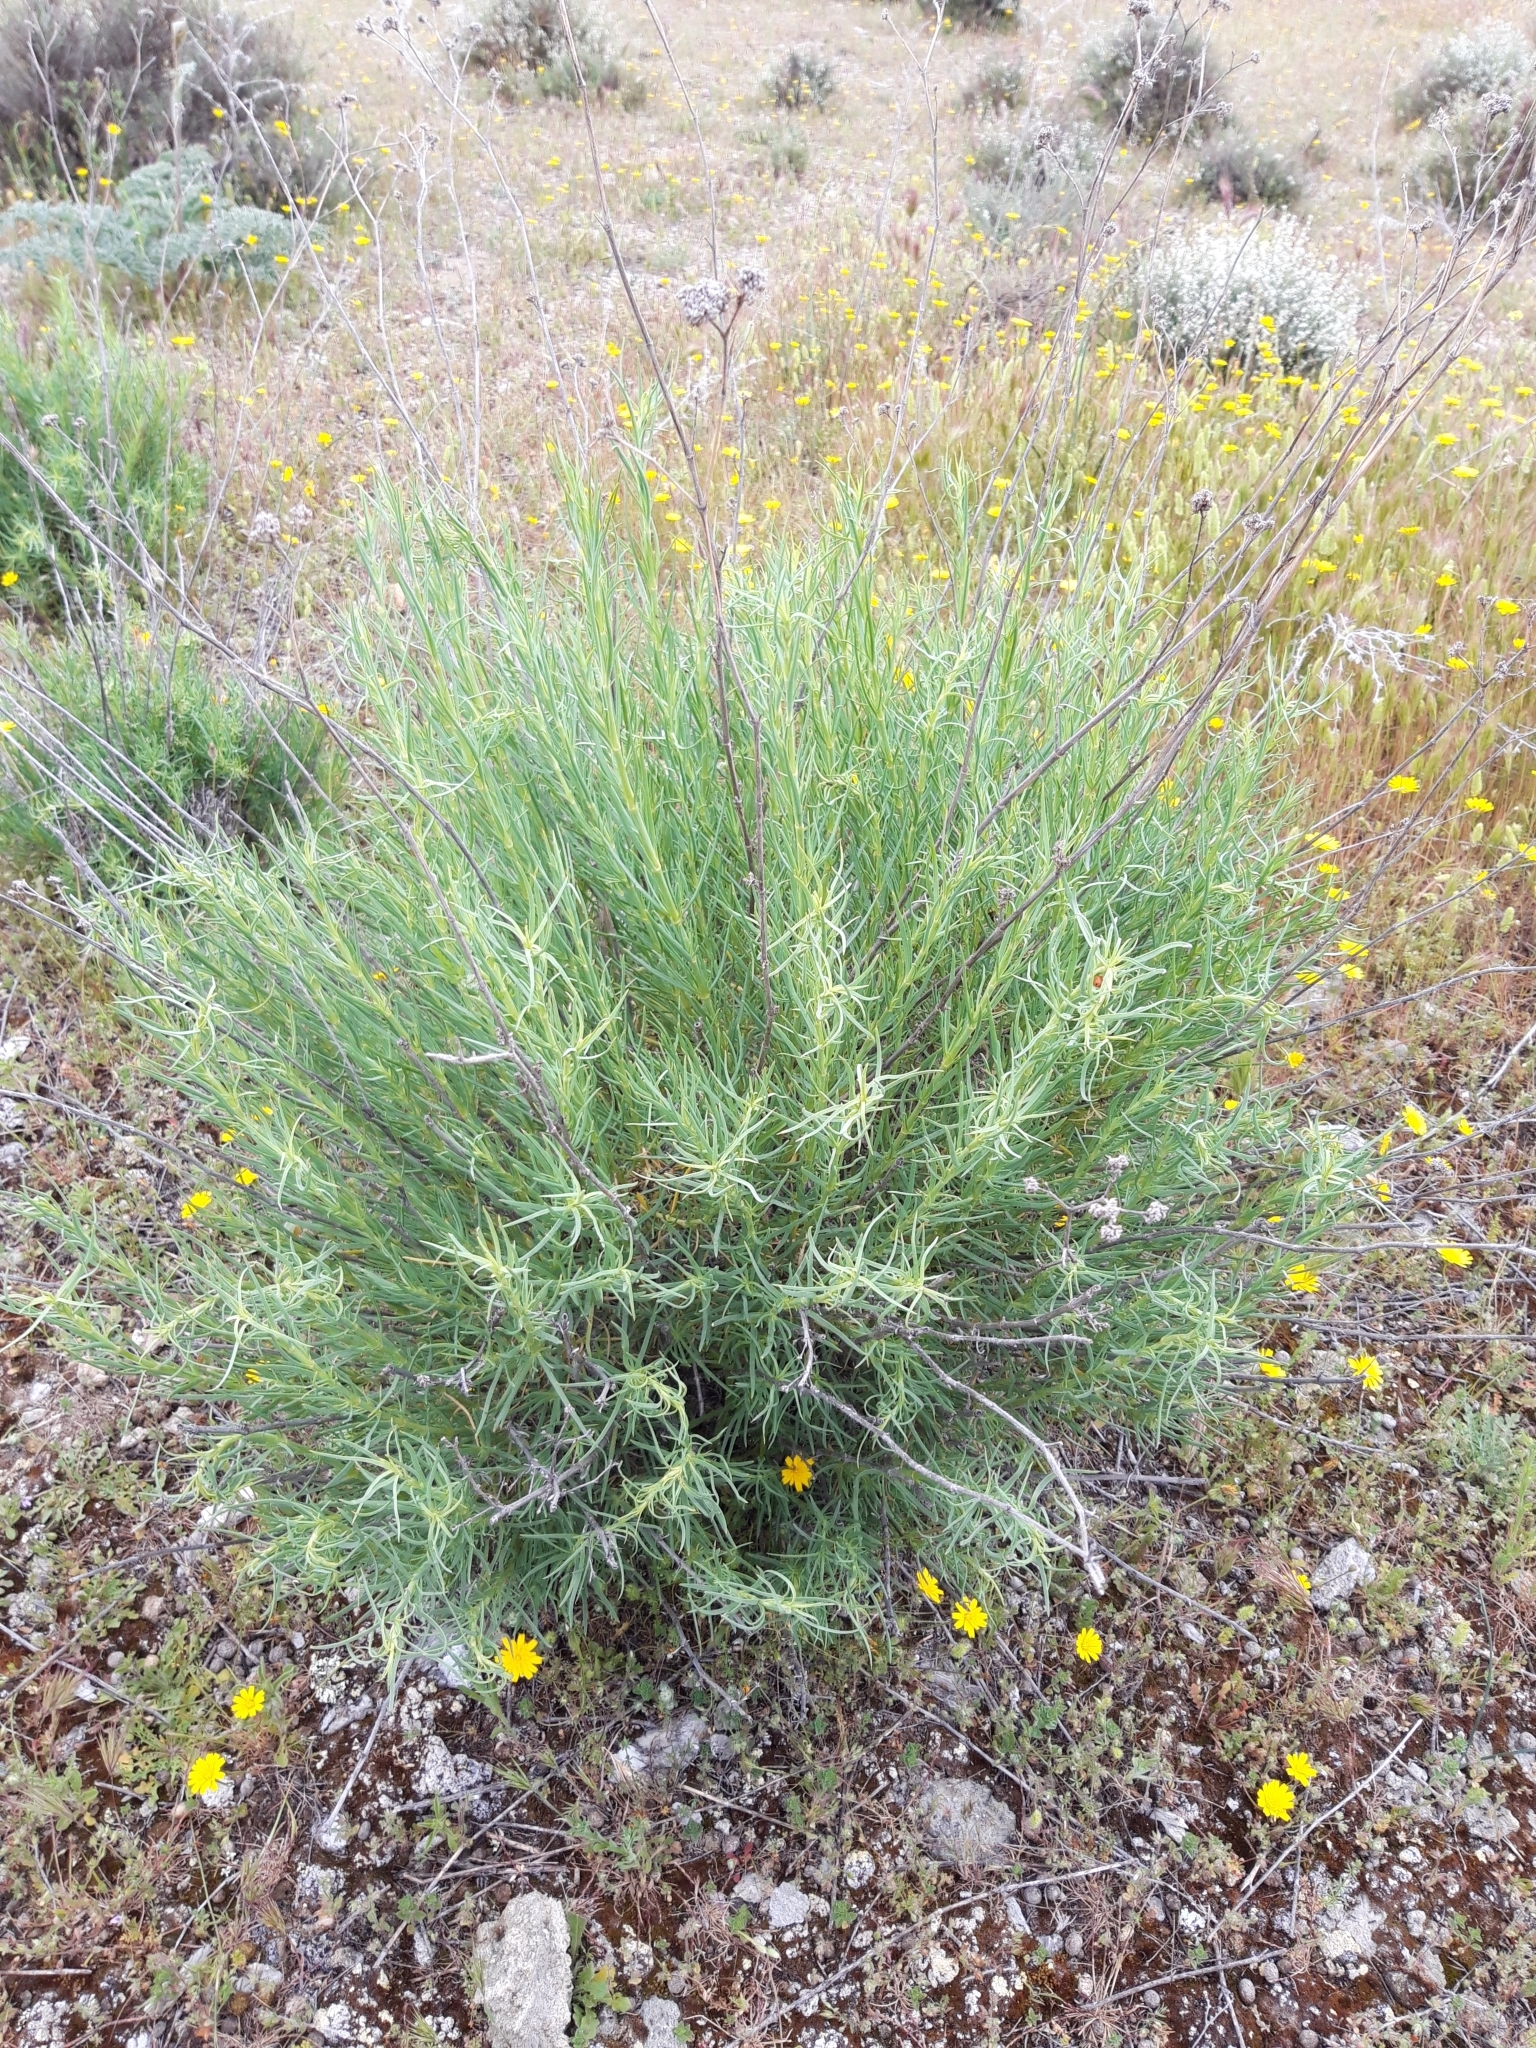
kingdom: Plantae
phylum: Tracheophyta
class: Magnoliopsida
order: Caryophyllales
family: Caryophyllaceae
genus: Gypsophila
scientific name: Gypsophila struthium
